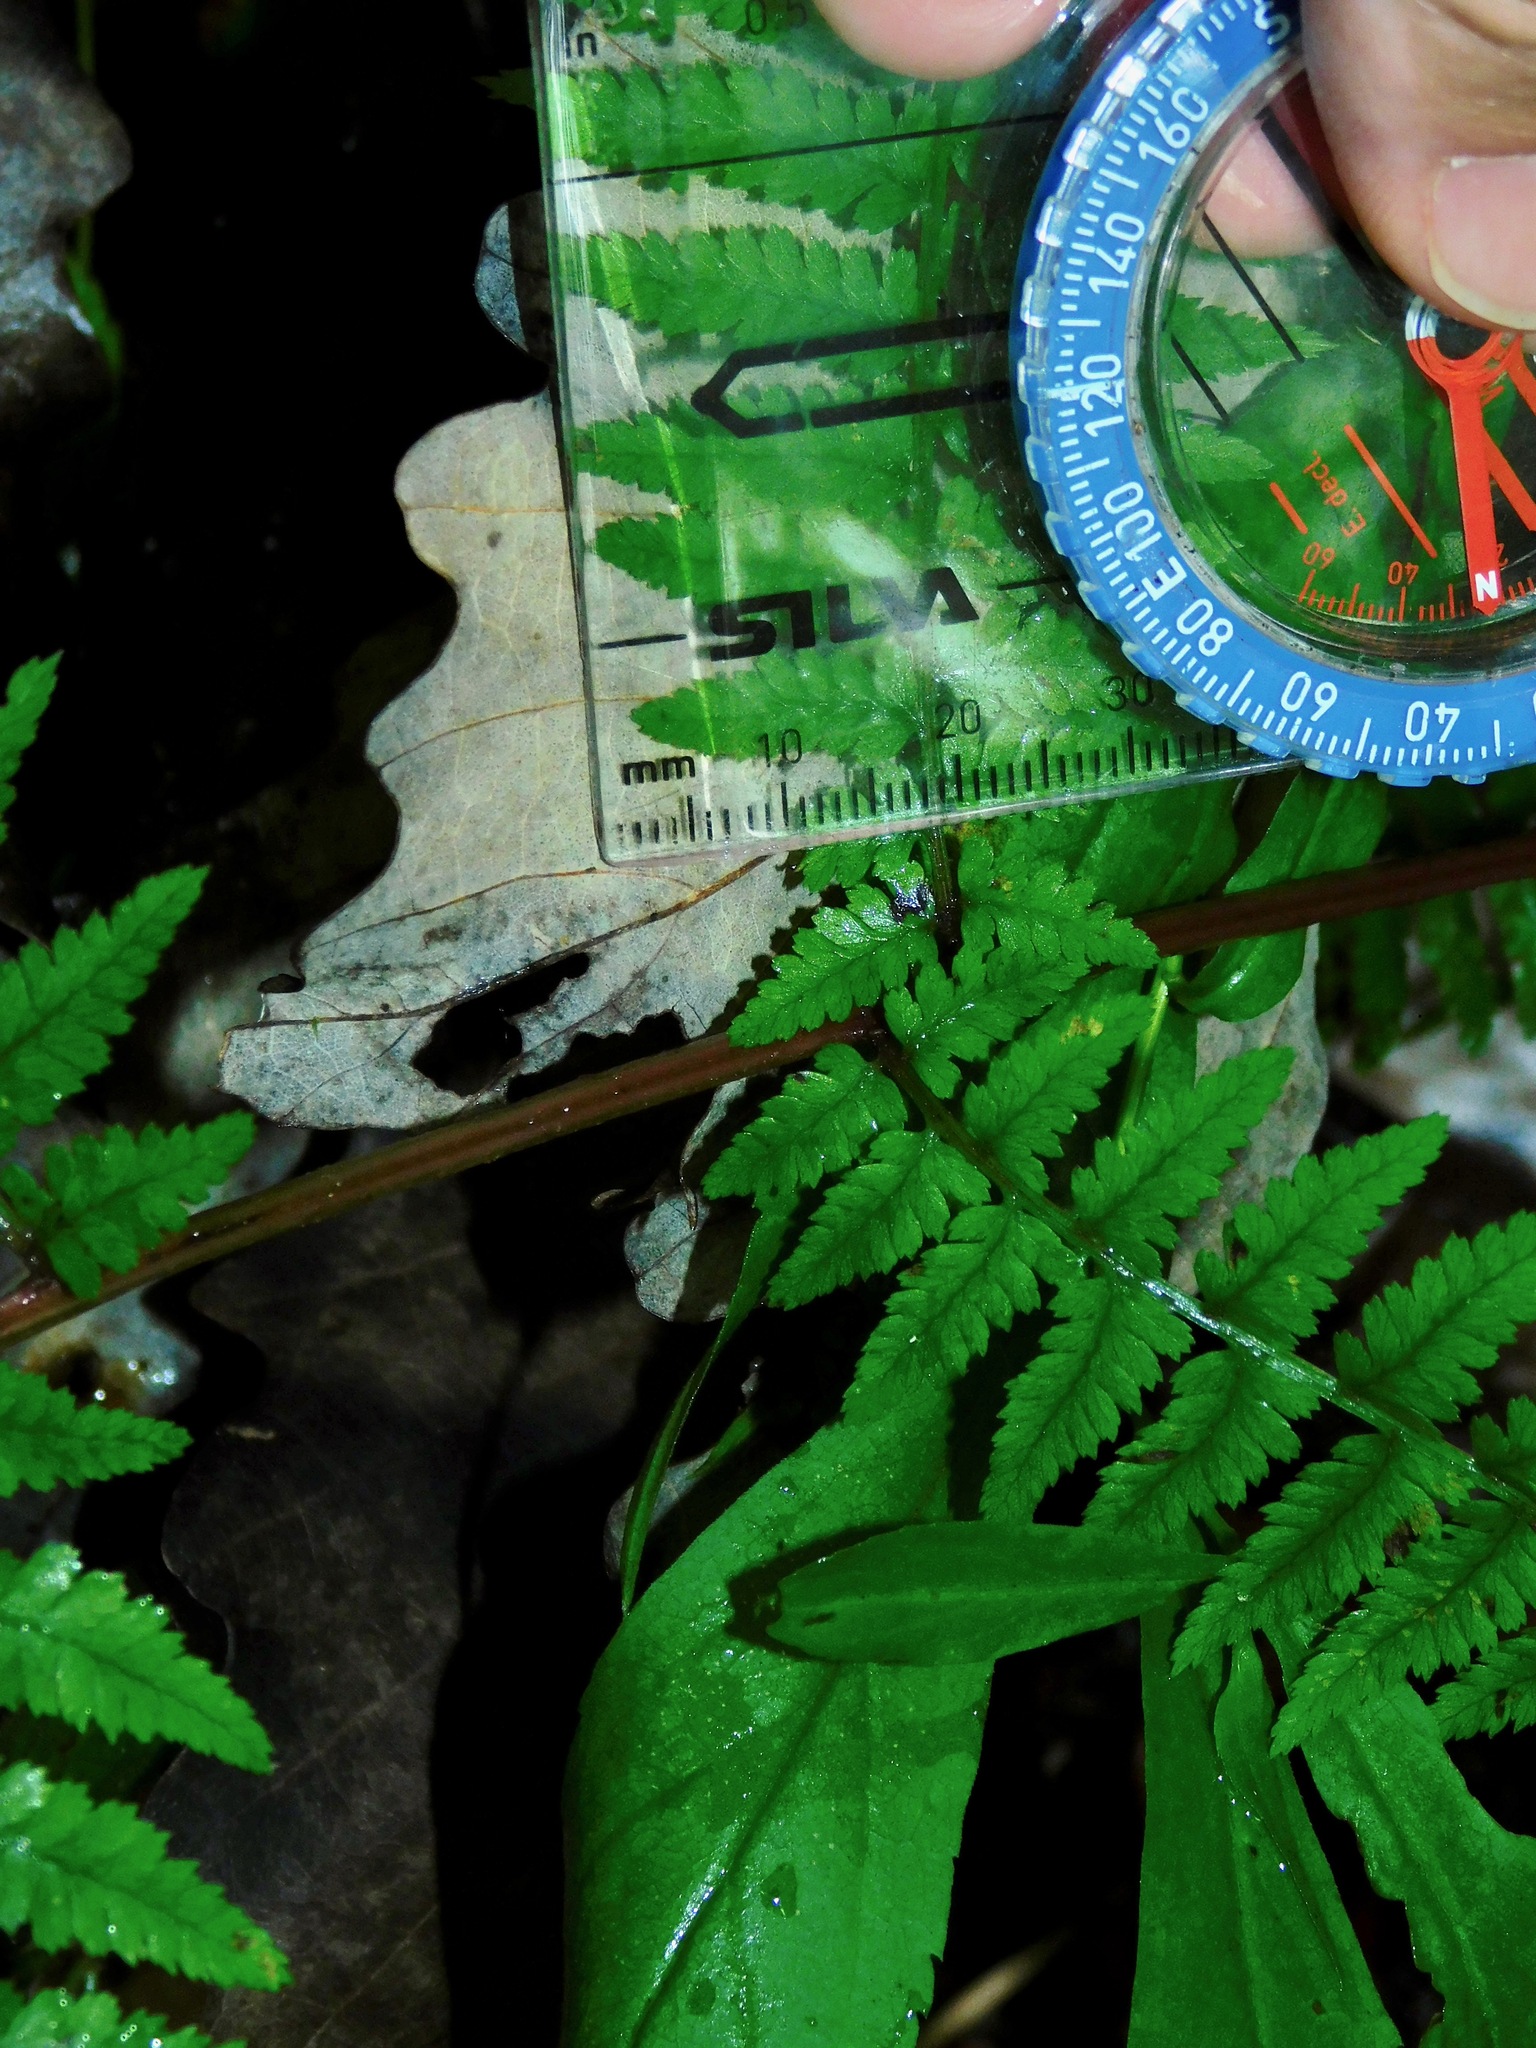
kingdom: Plantae
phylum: Tracheophyta
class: Polypodiopsida
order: Polypodiales
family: Athyriaceae
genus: Athyrium
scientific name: Athyrium asplenioides
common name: Southern lady fern
